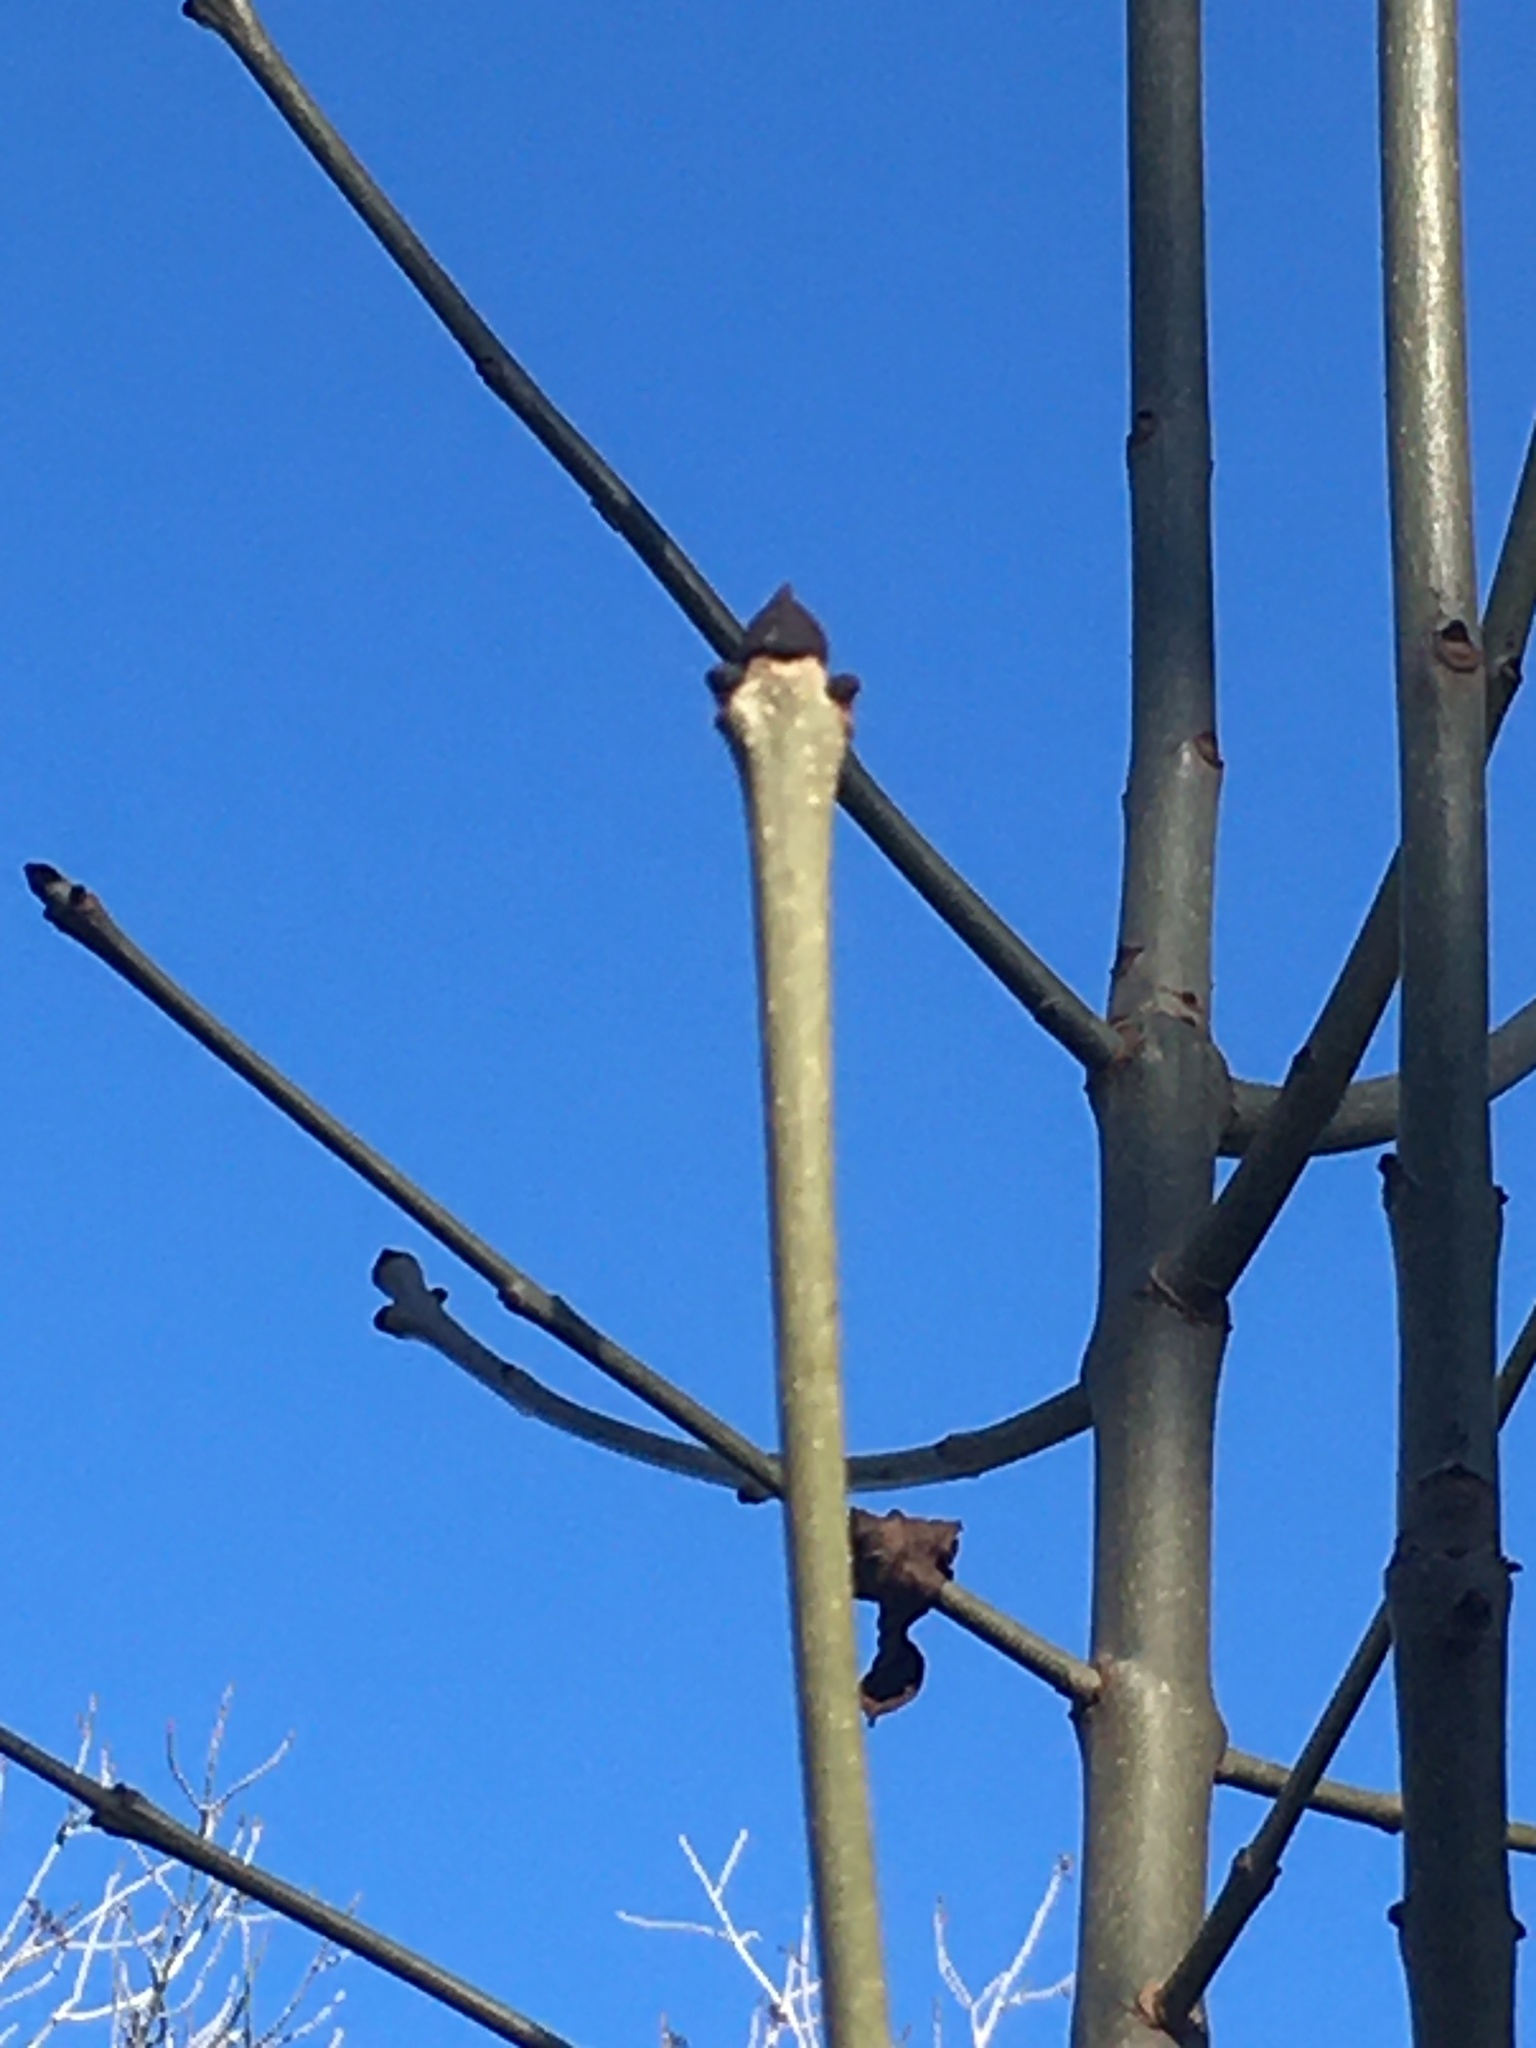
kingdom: Plantae
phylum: Tracheophyta
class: Magnoliopsida
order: Lamiales
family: Oleaceae
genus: Fraxinus
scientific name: Fraxinus excelsior
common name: European ash
